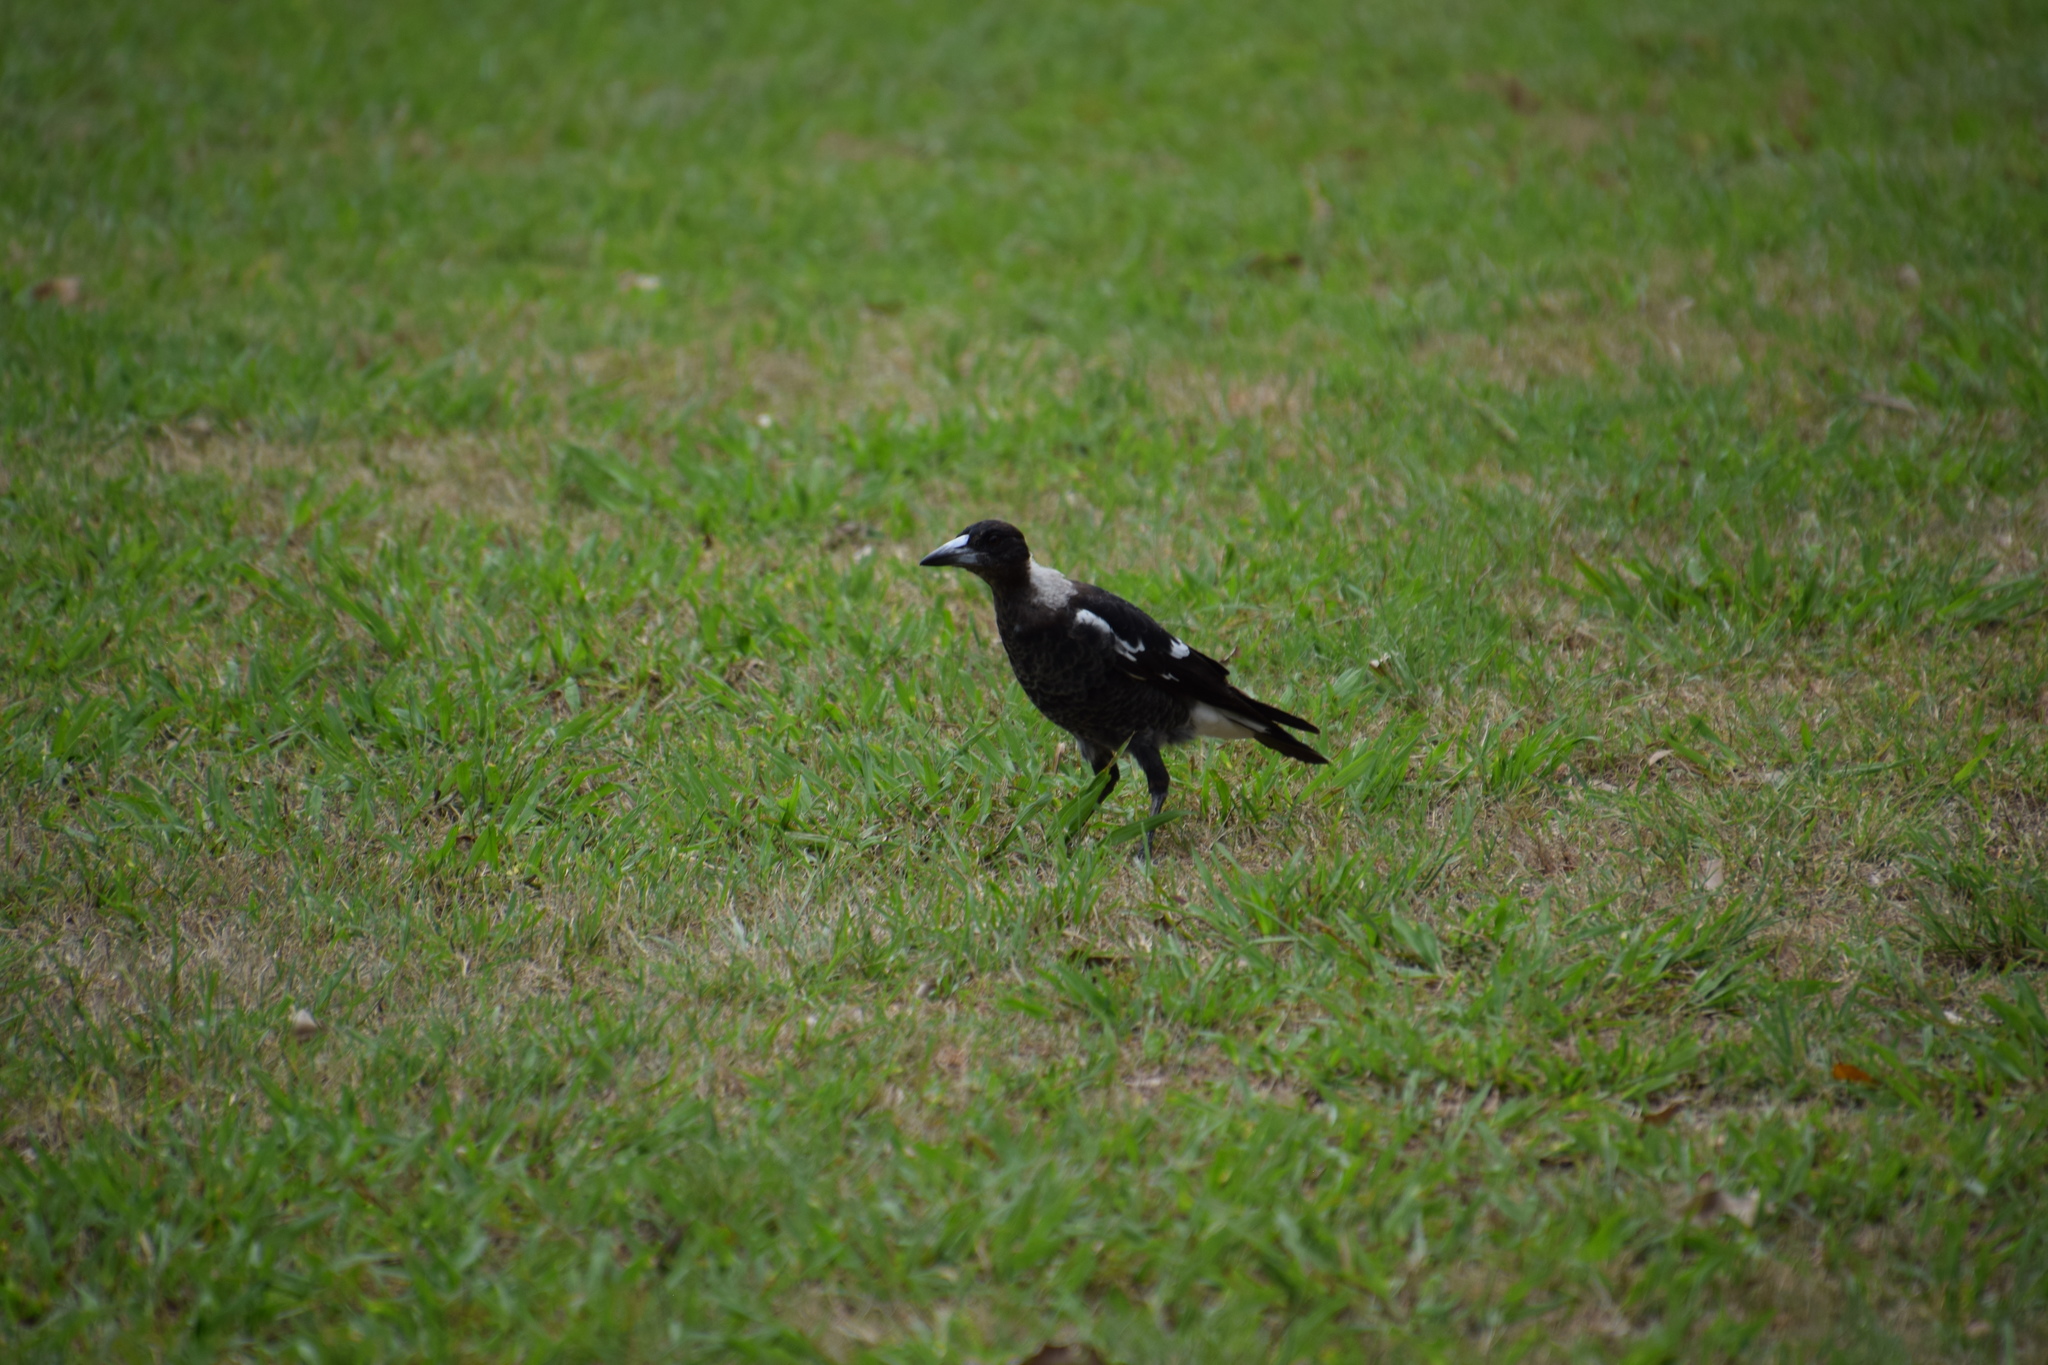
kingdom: Animalia
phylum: Chordata
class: Aves
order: Passeriformes
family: Cracticidae
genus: Gymnorhina
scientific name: Gymnorhina tibicen
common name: Australian magpie
